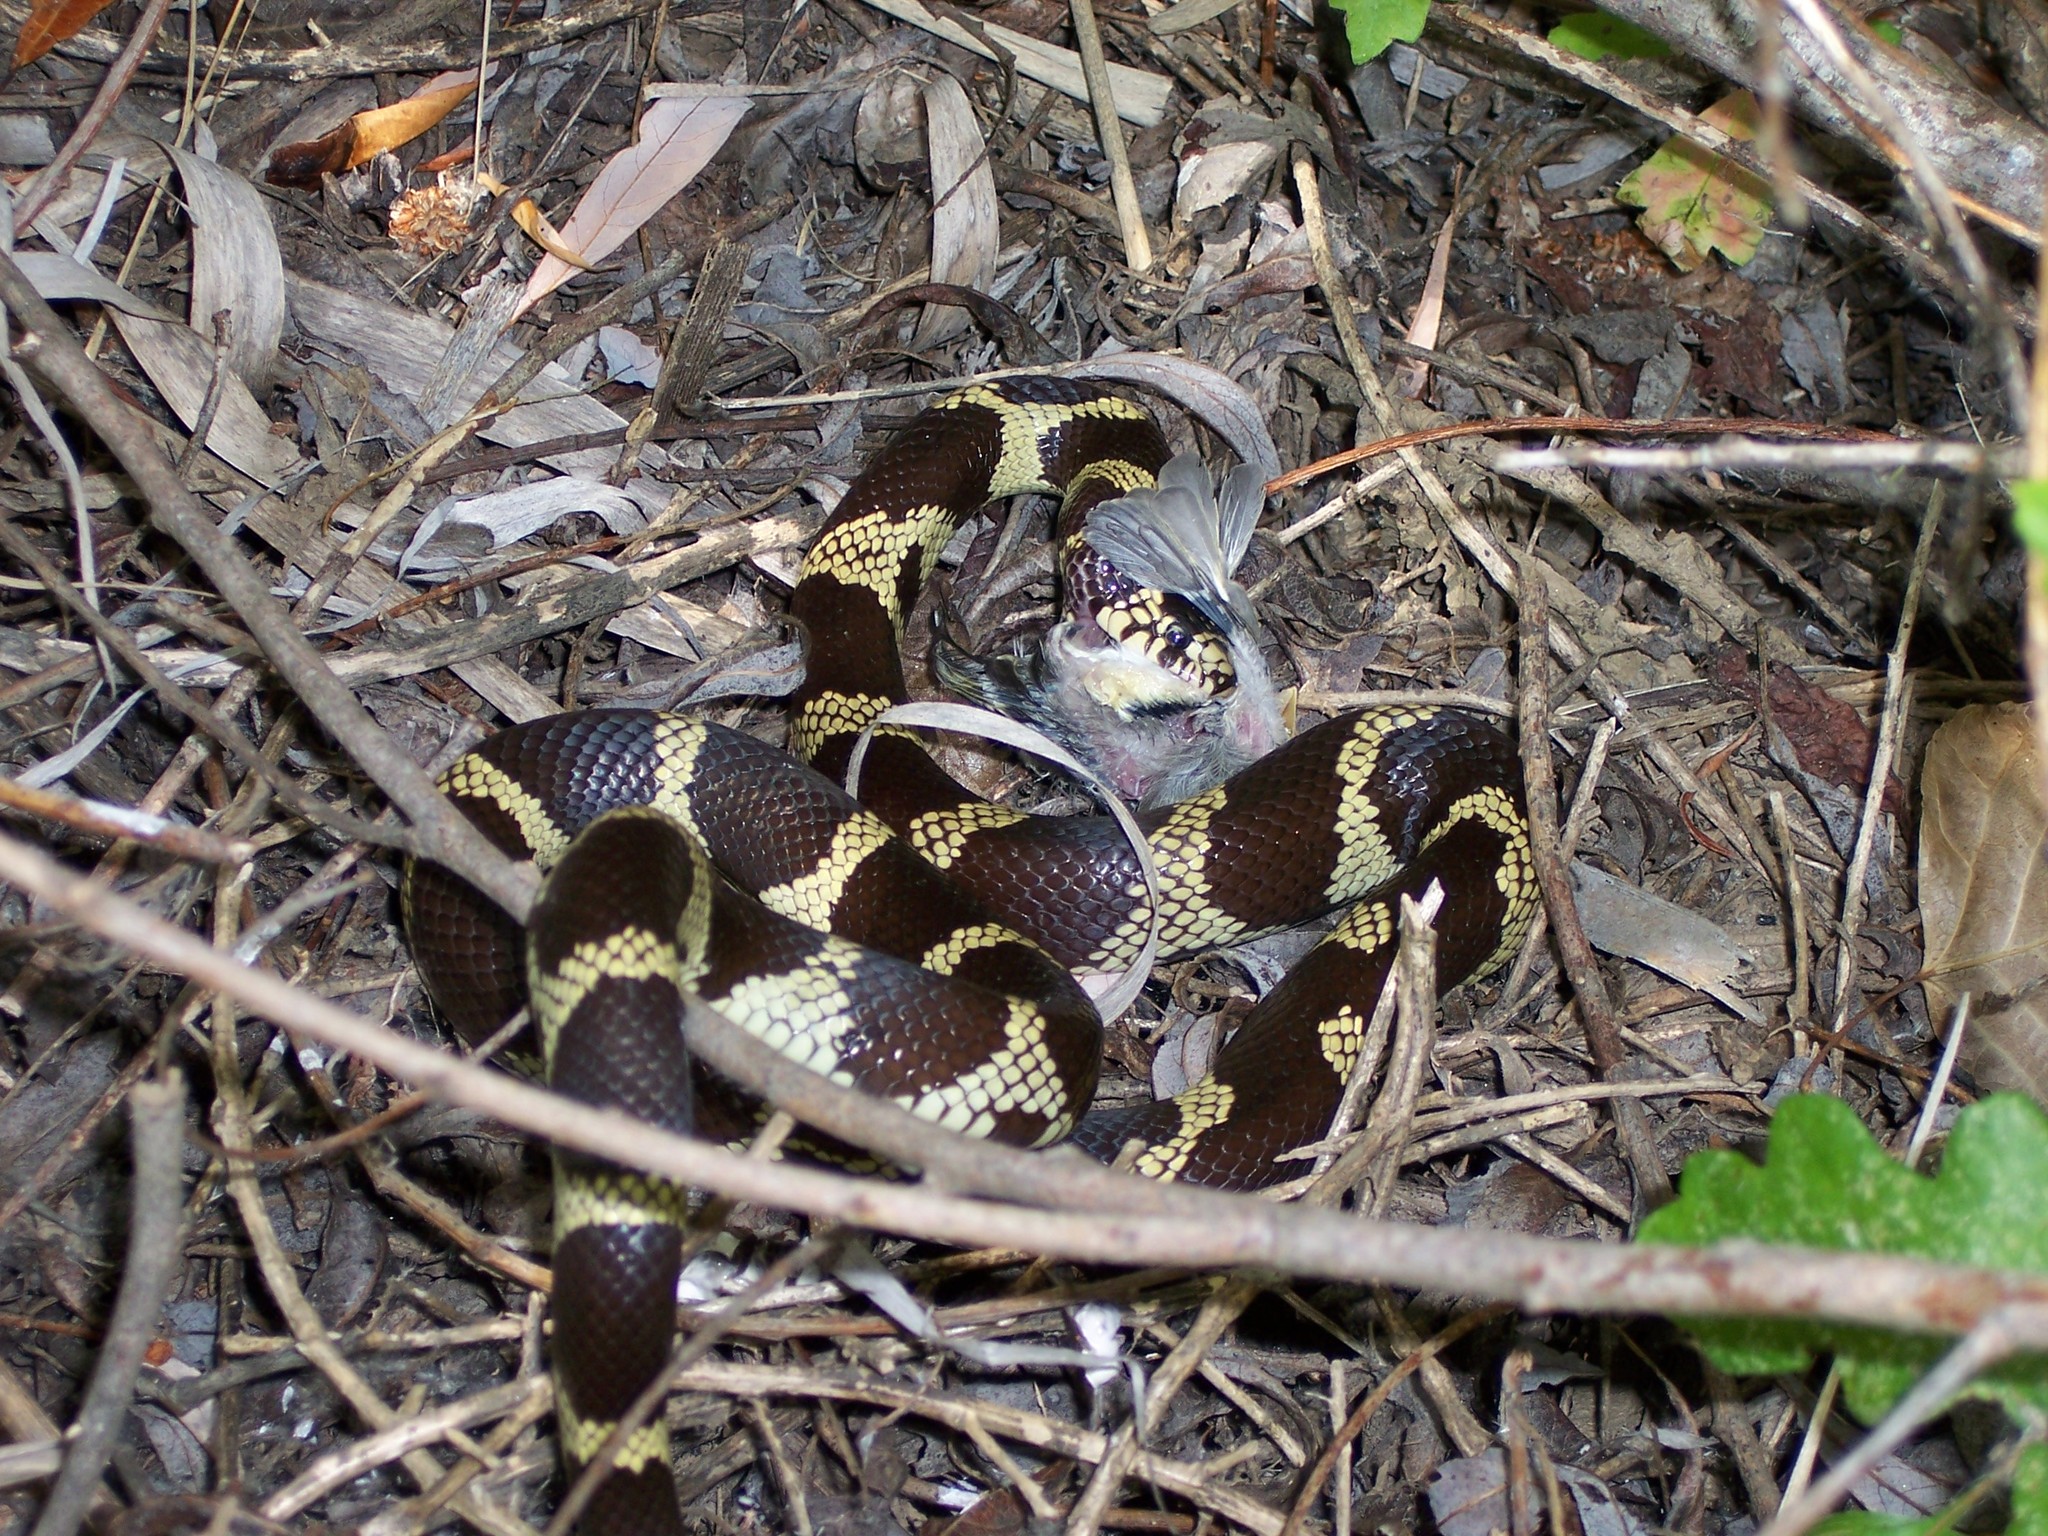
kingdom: Animalia
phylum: Chordata
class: Squamata
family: Colubridae
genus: Lampropeltis
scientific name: Lampropeltis californiae
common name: California kingsnake
